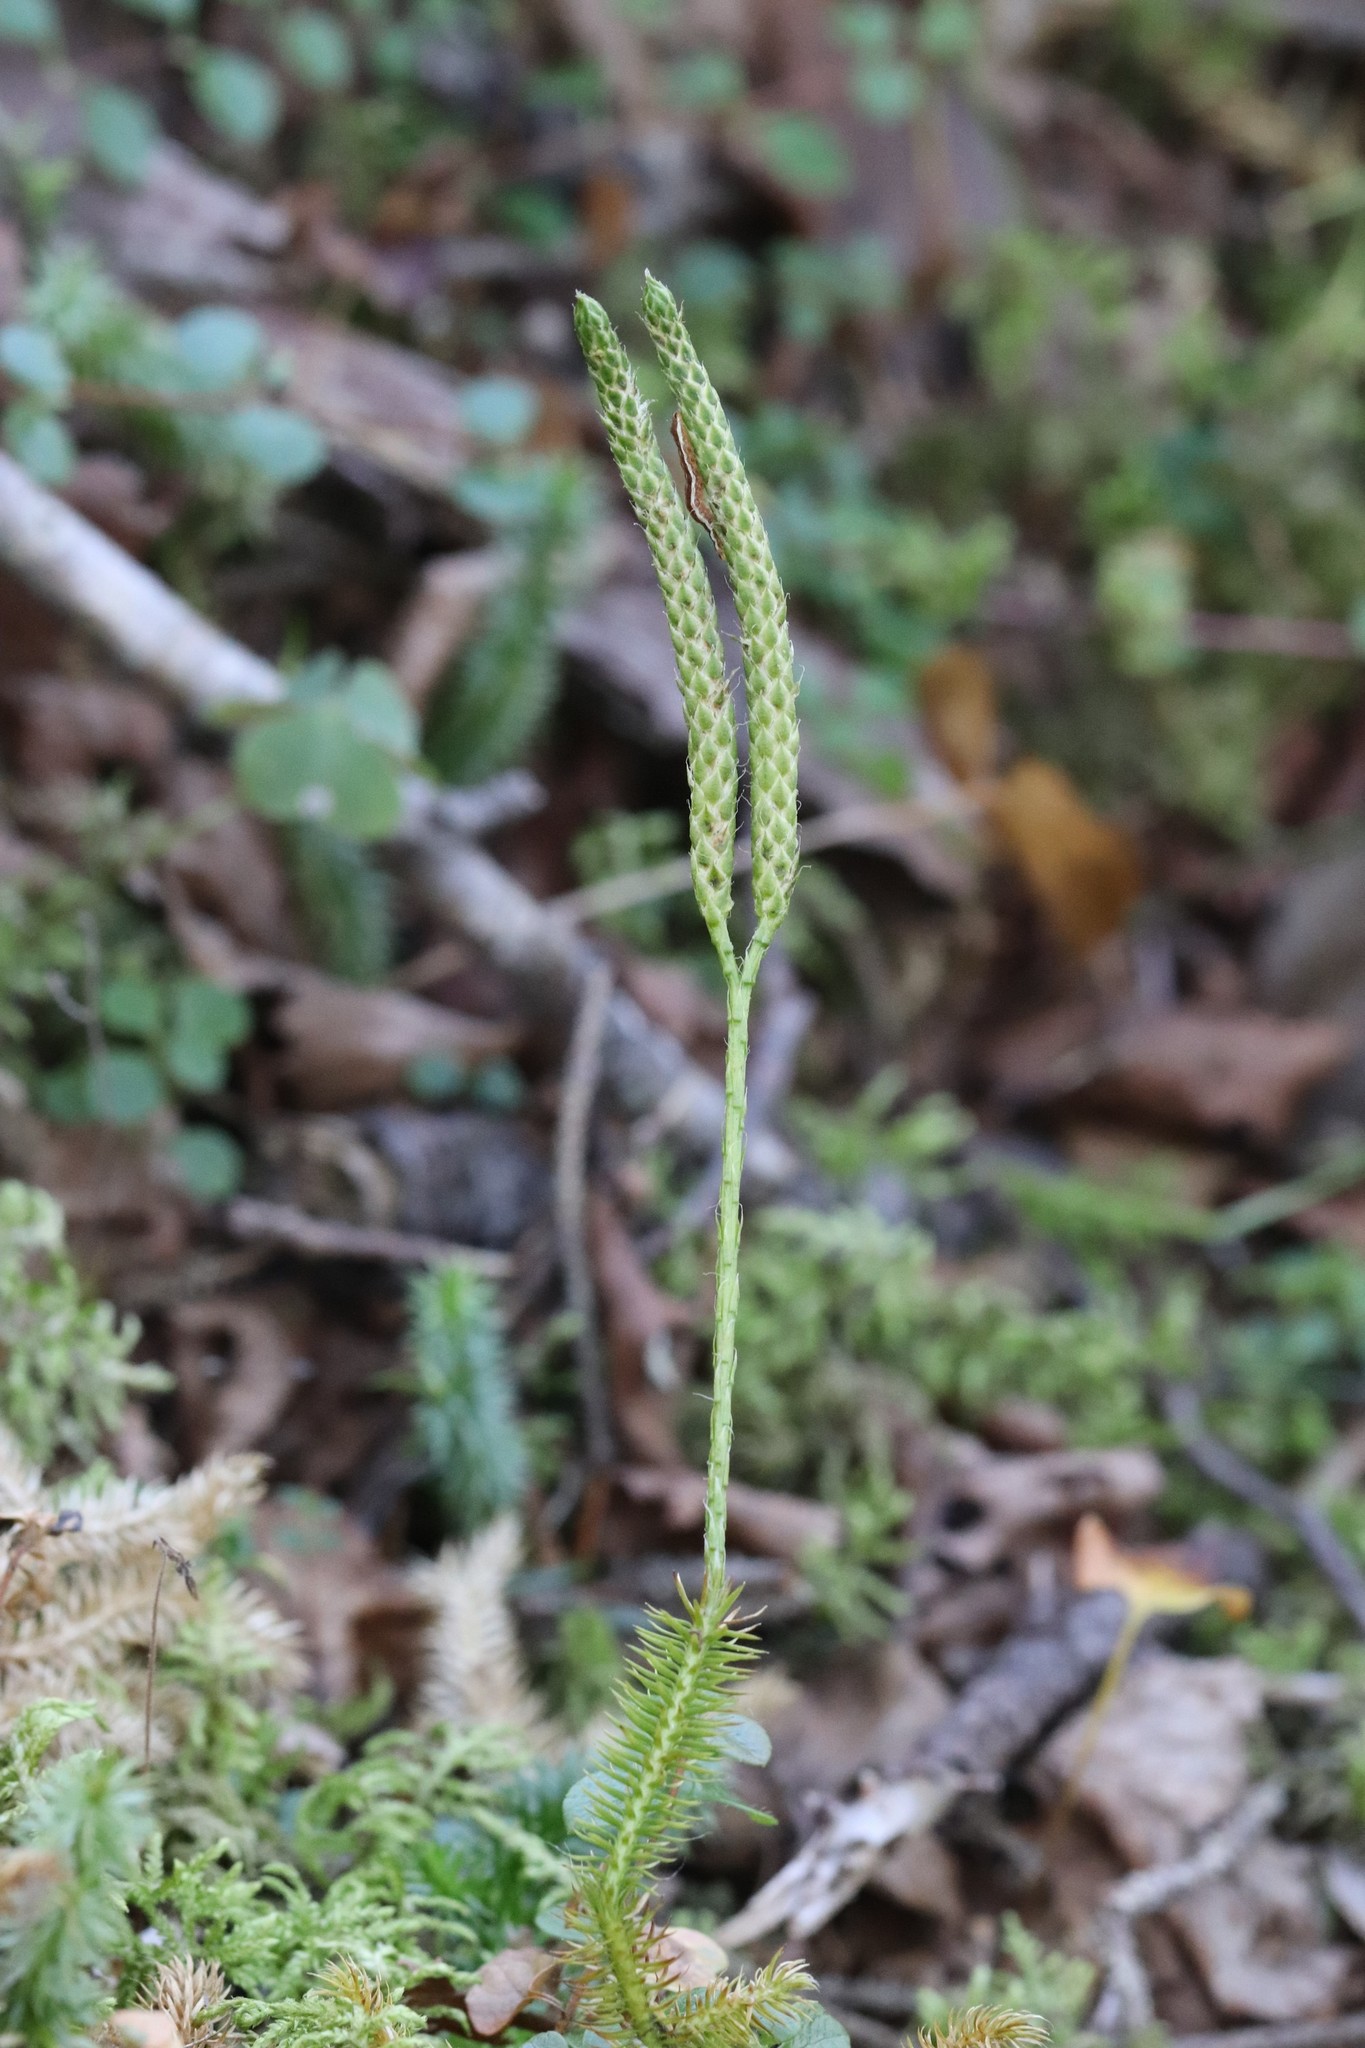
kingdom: Plantae
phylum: Tracheophyta
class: Lycopodiopsida
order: Lycopodiales
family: Lycopodiaceae
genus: Lycopodium
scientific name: Lycopodium clavatum
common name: Stag's-horn clubmoss
